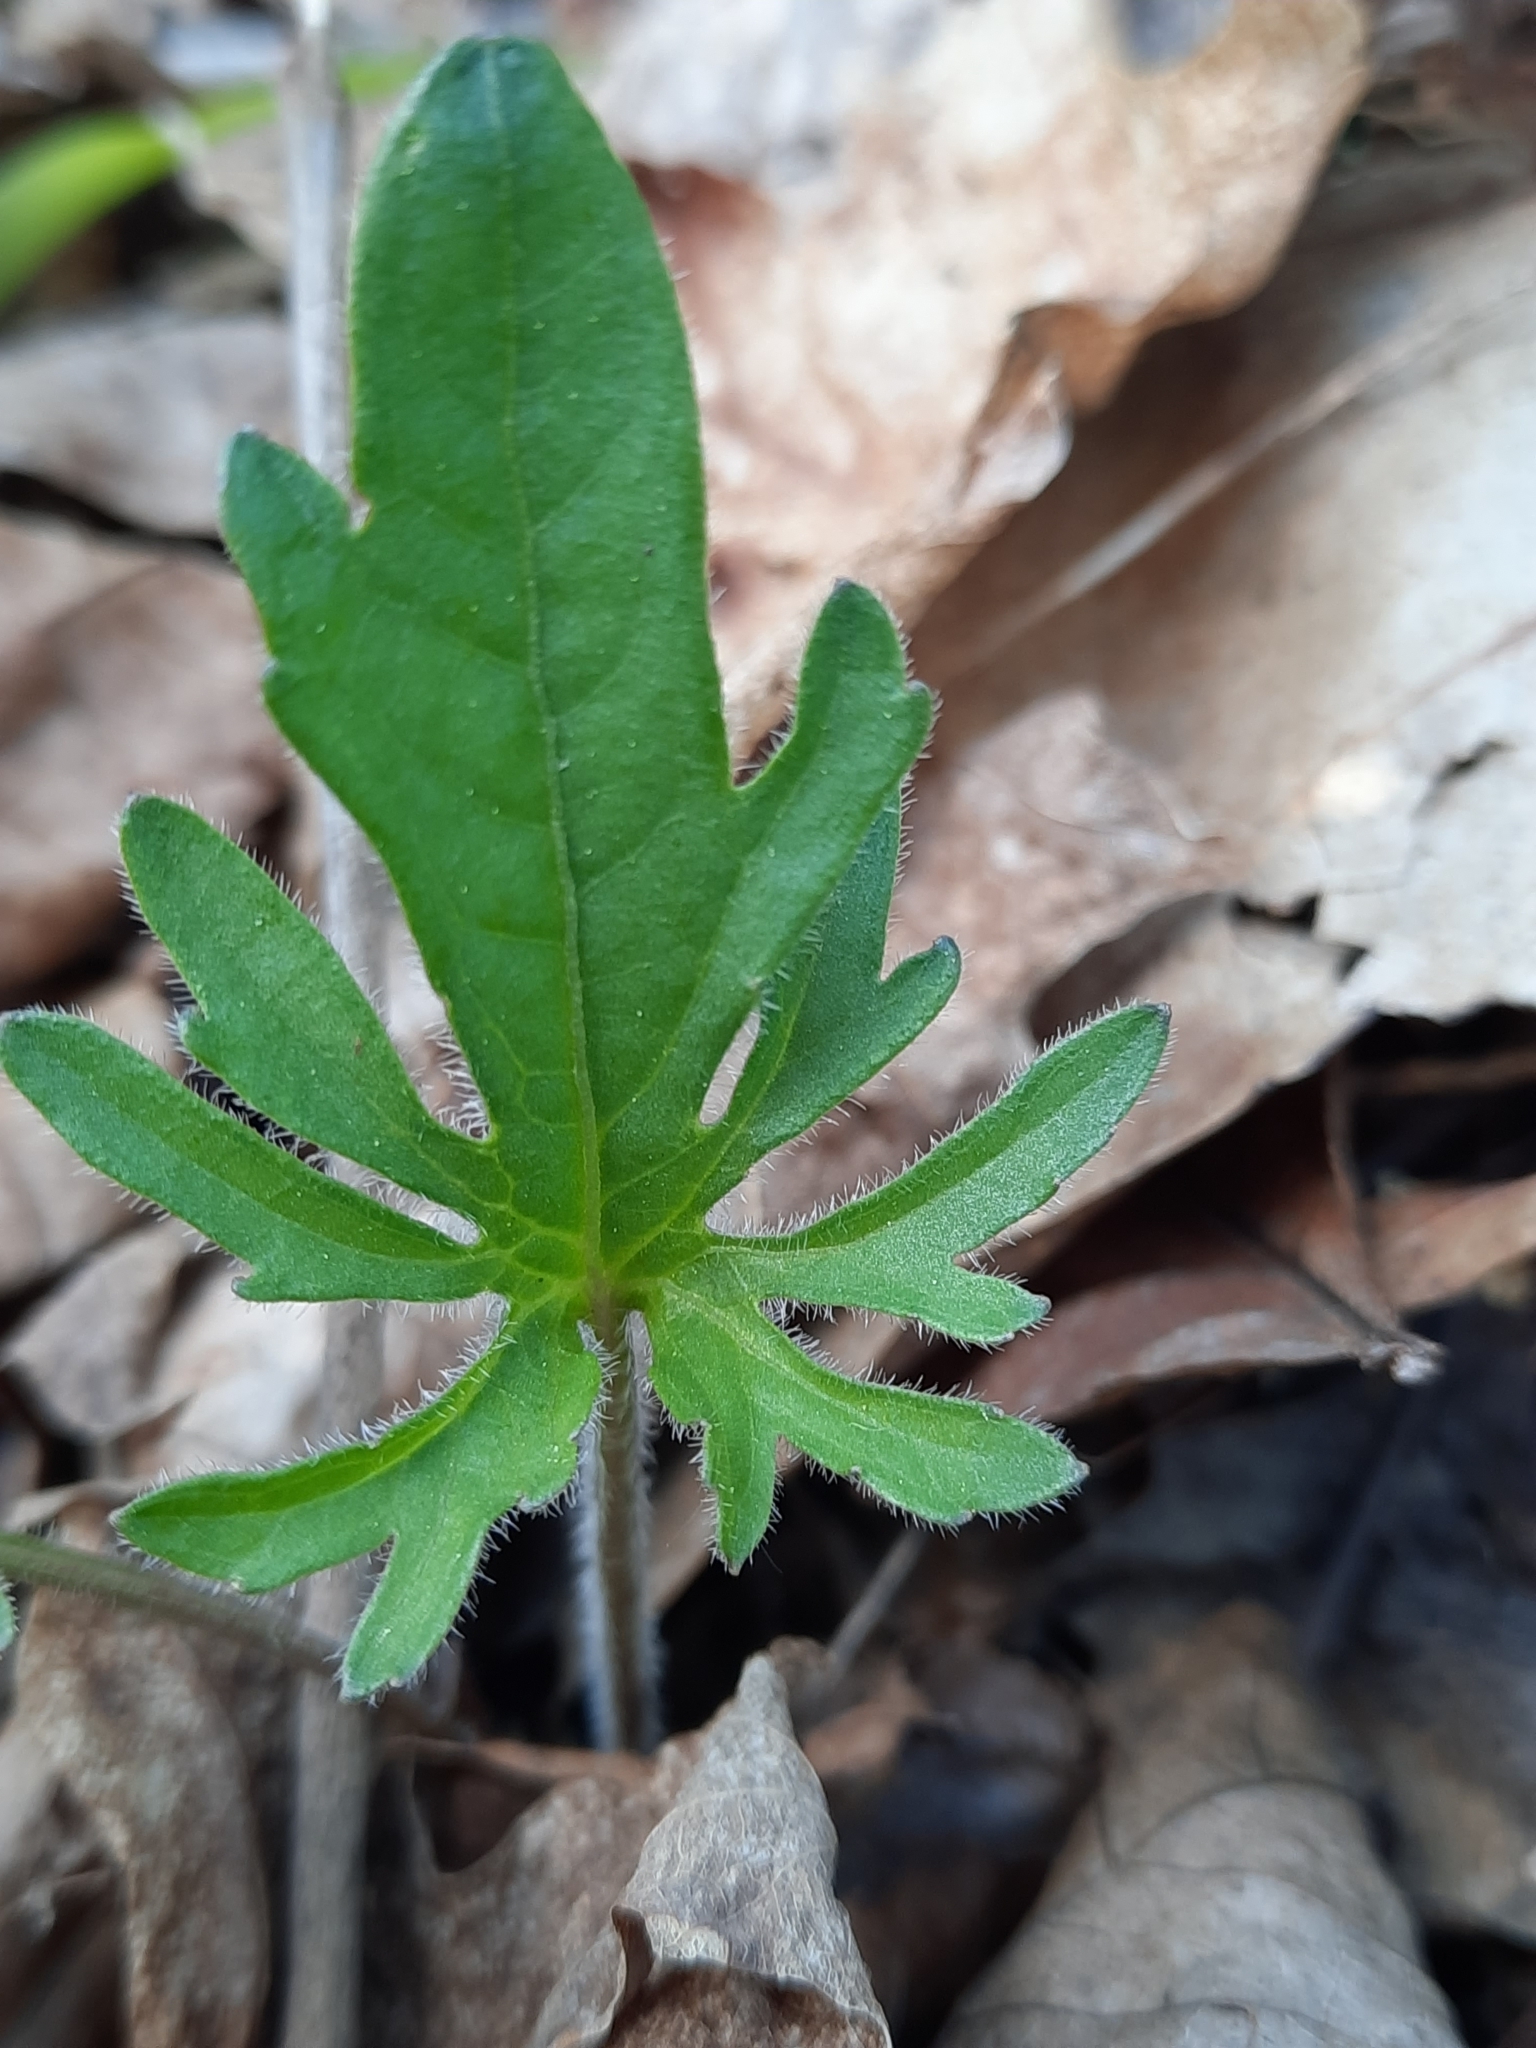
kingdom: Plantae
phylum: Tracheophyta
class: Magnoliopsida
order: Malpighiales
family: Violaceae
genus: Viola
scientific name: Viola palmata
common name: Early blue violet
